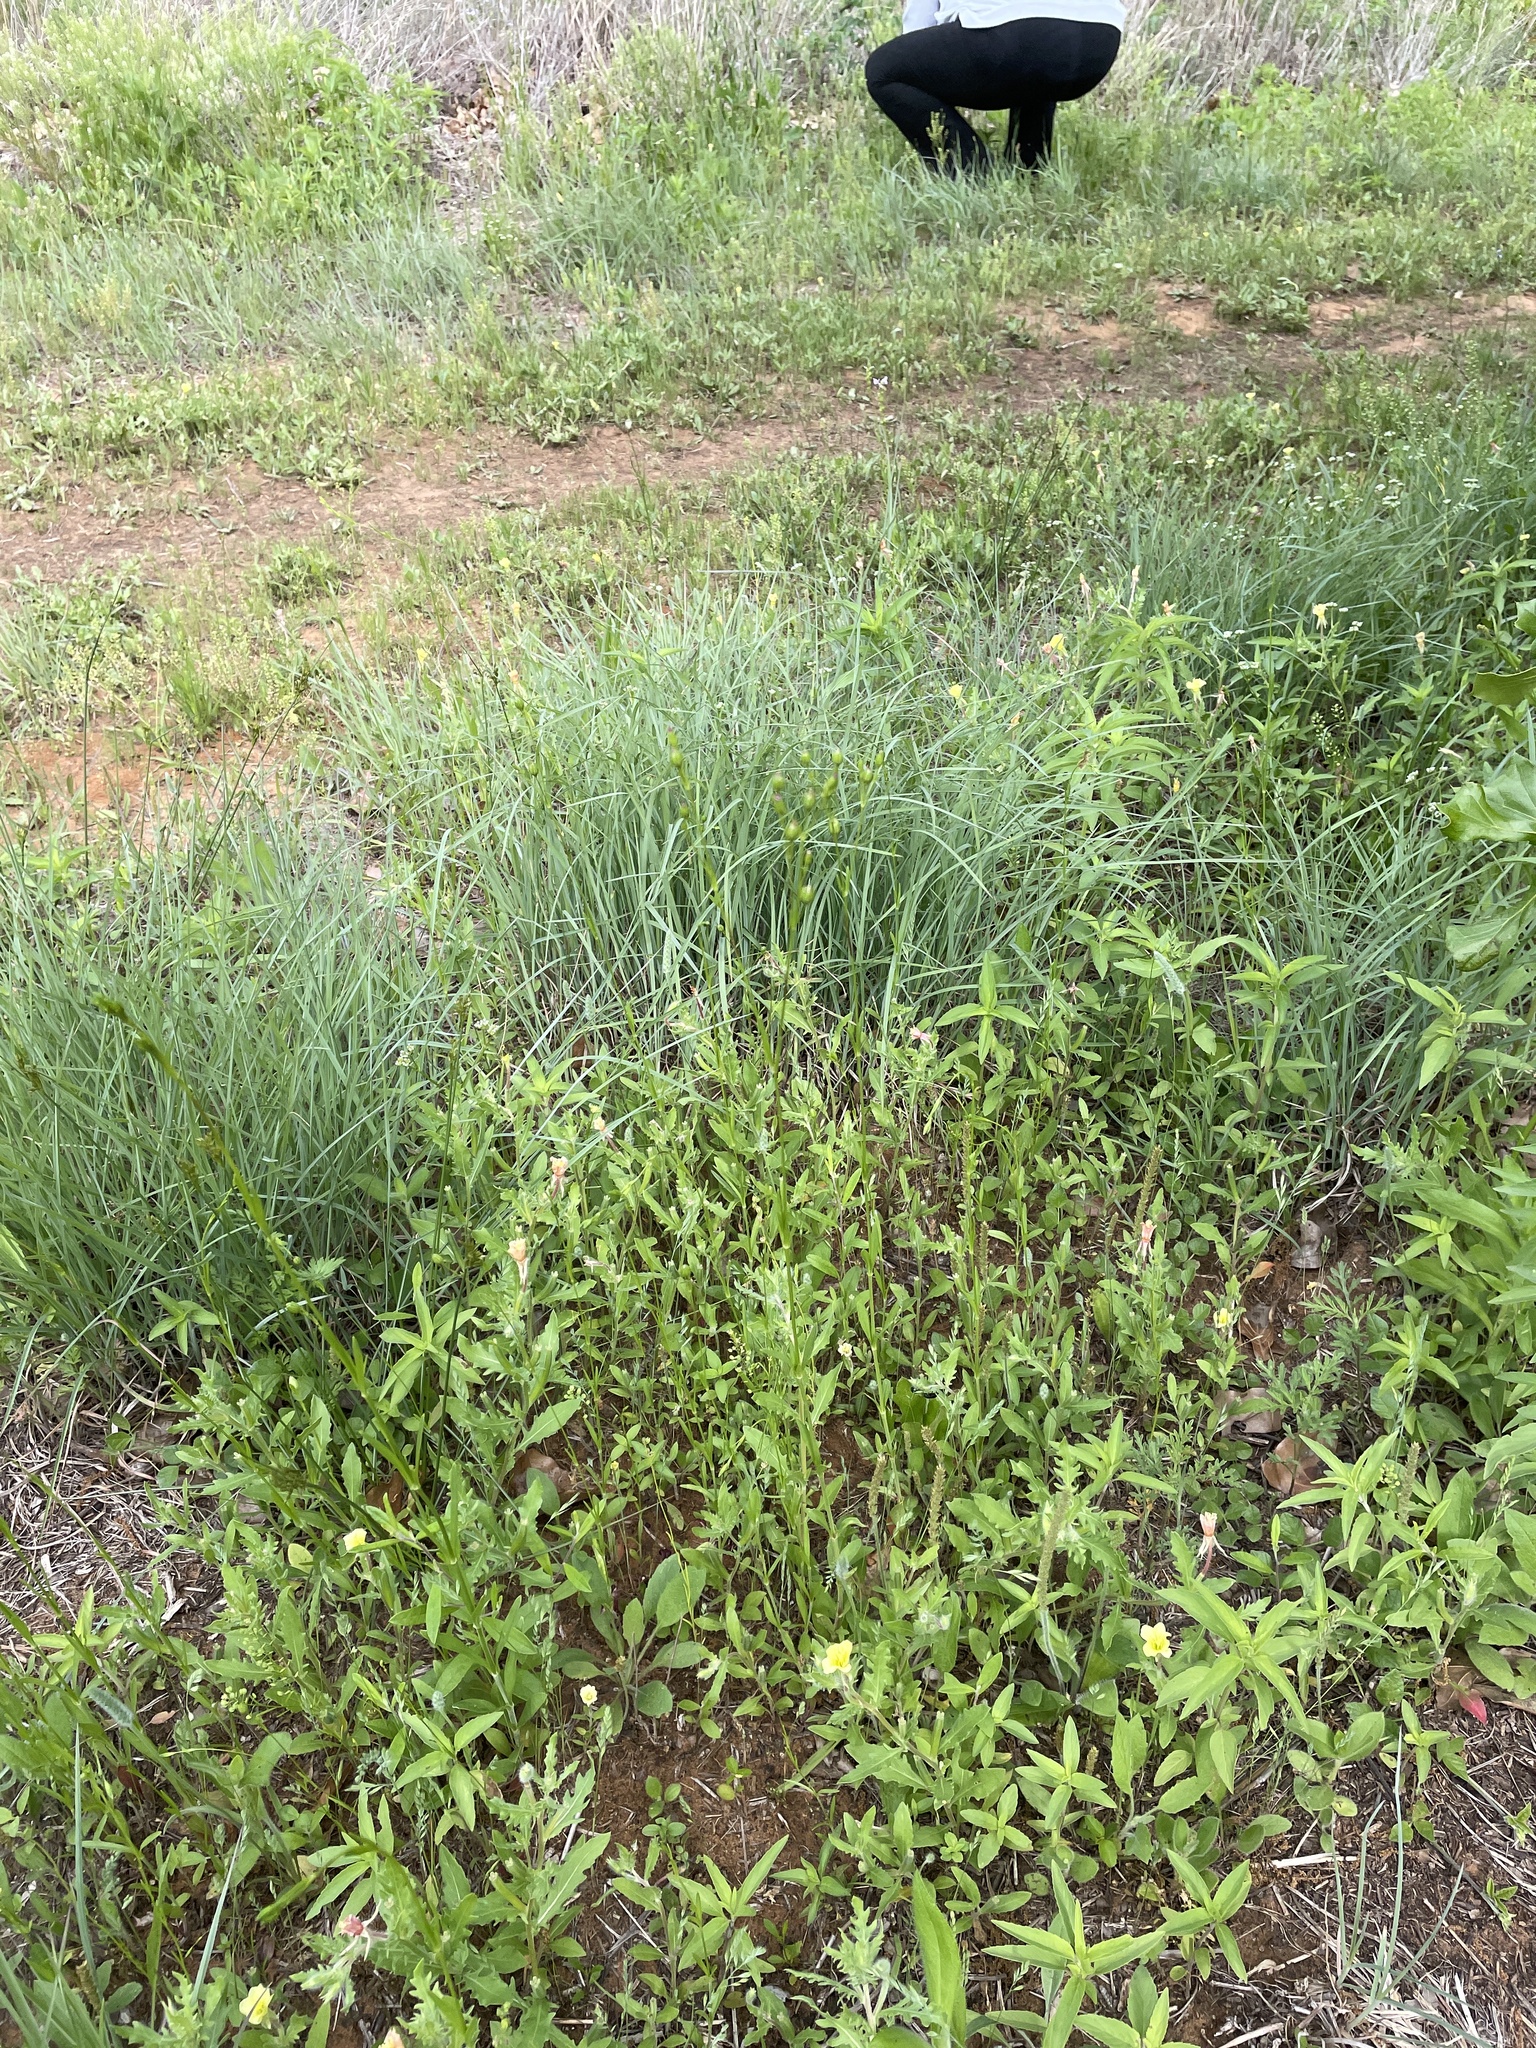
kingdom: Plantae
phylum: Tracheophyta
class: Magnoliopsida
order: Caryophyllales
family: Caryophyllaceae
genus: Silene
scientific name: Silene antirrhina
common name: Sleepy catchfly
